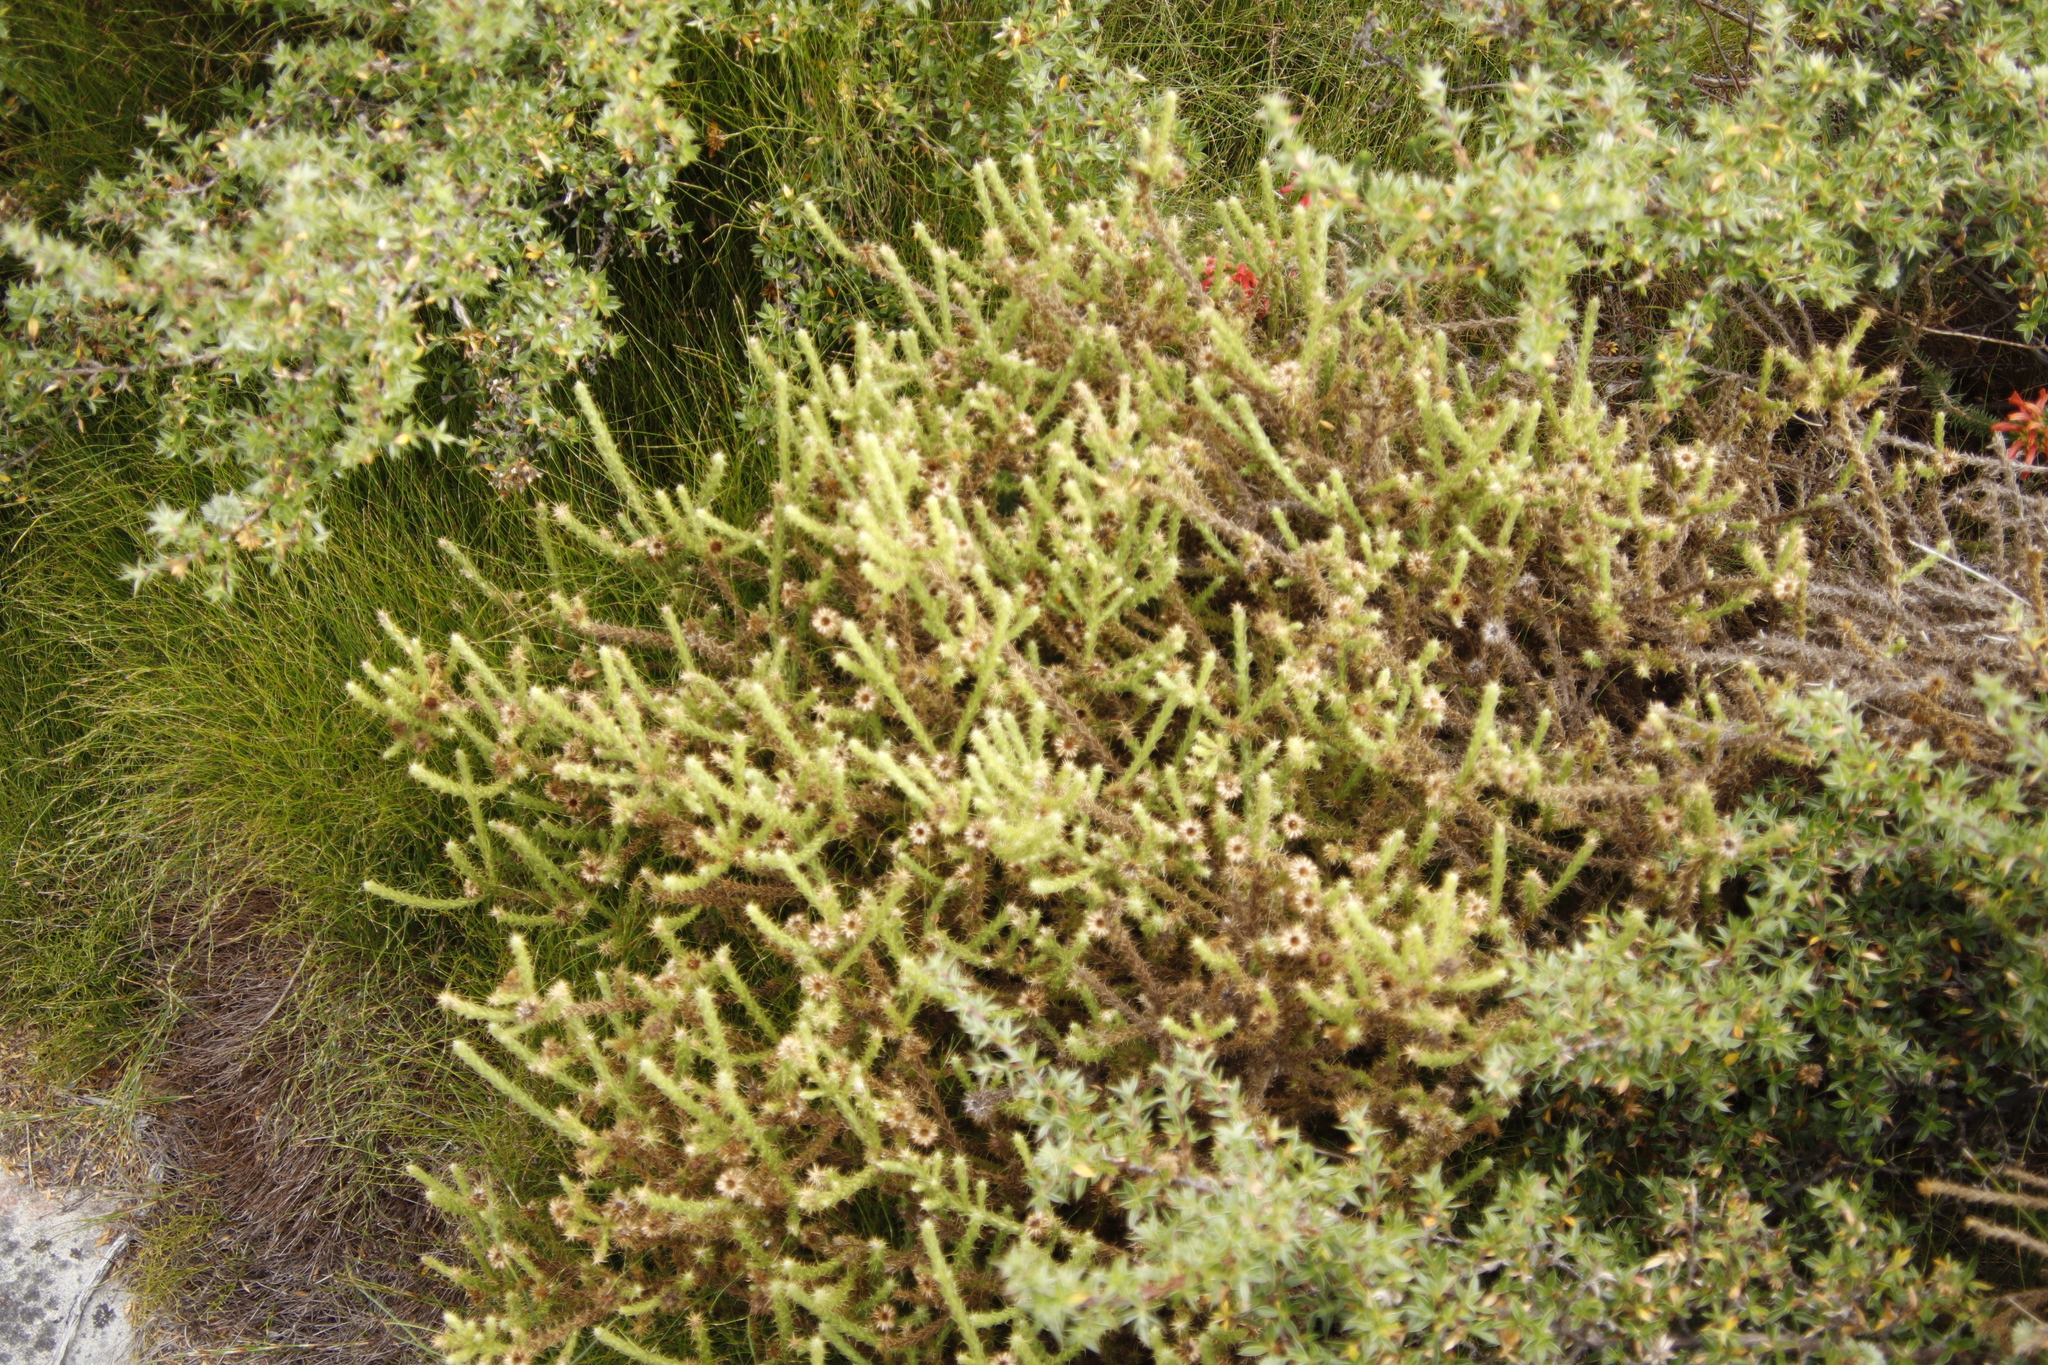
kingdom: Plantae
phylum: Tracheophyta
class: Magnoliopsida
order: Asterales
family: Asteraceae
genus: Cullumia
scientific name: Cullumia reticulata
